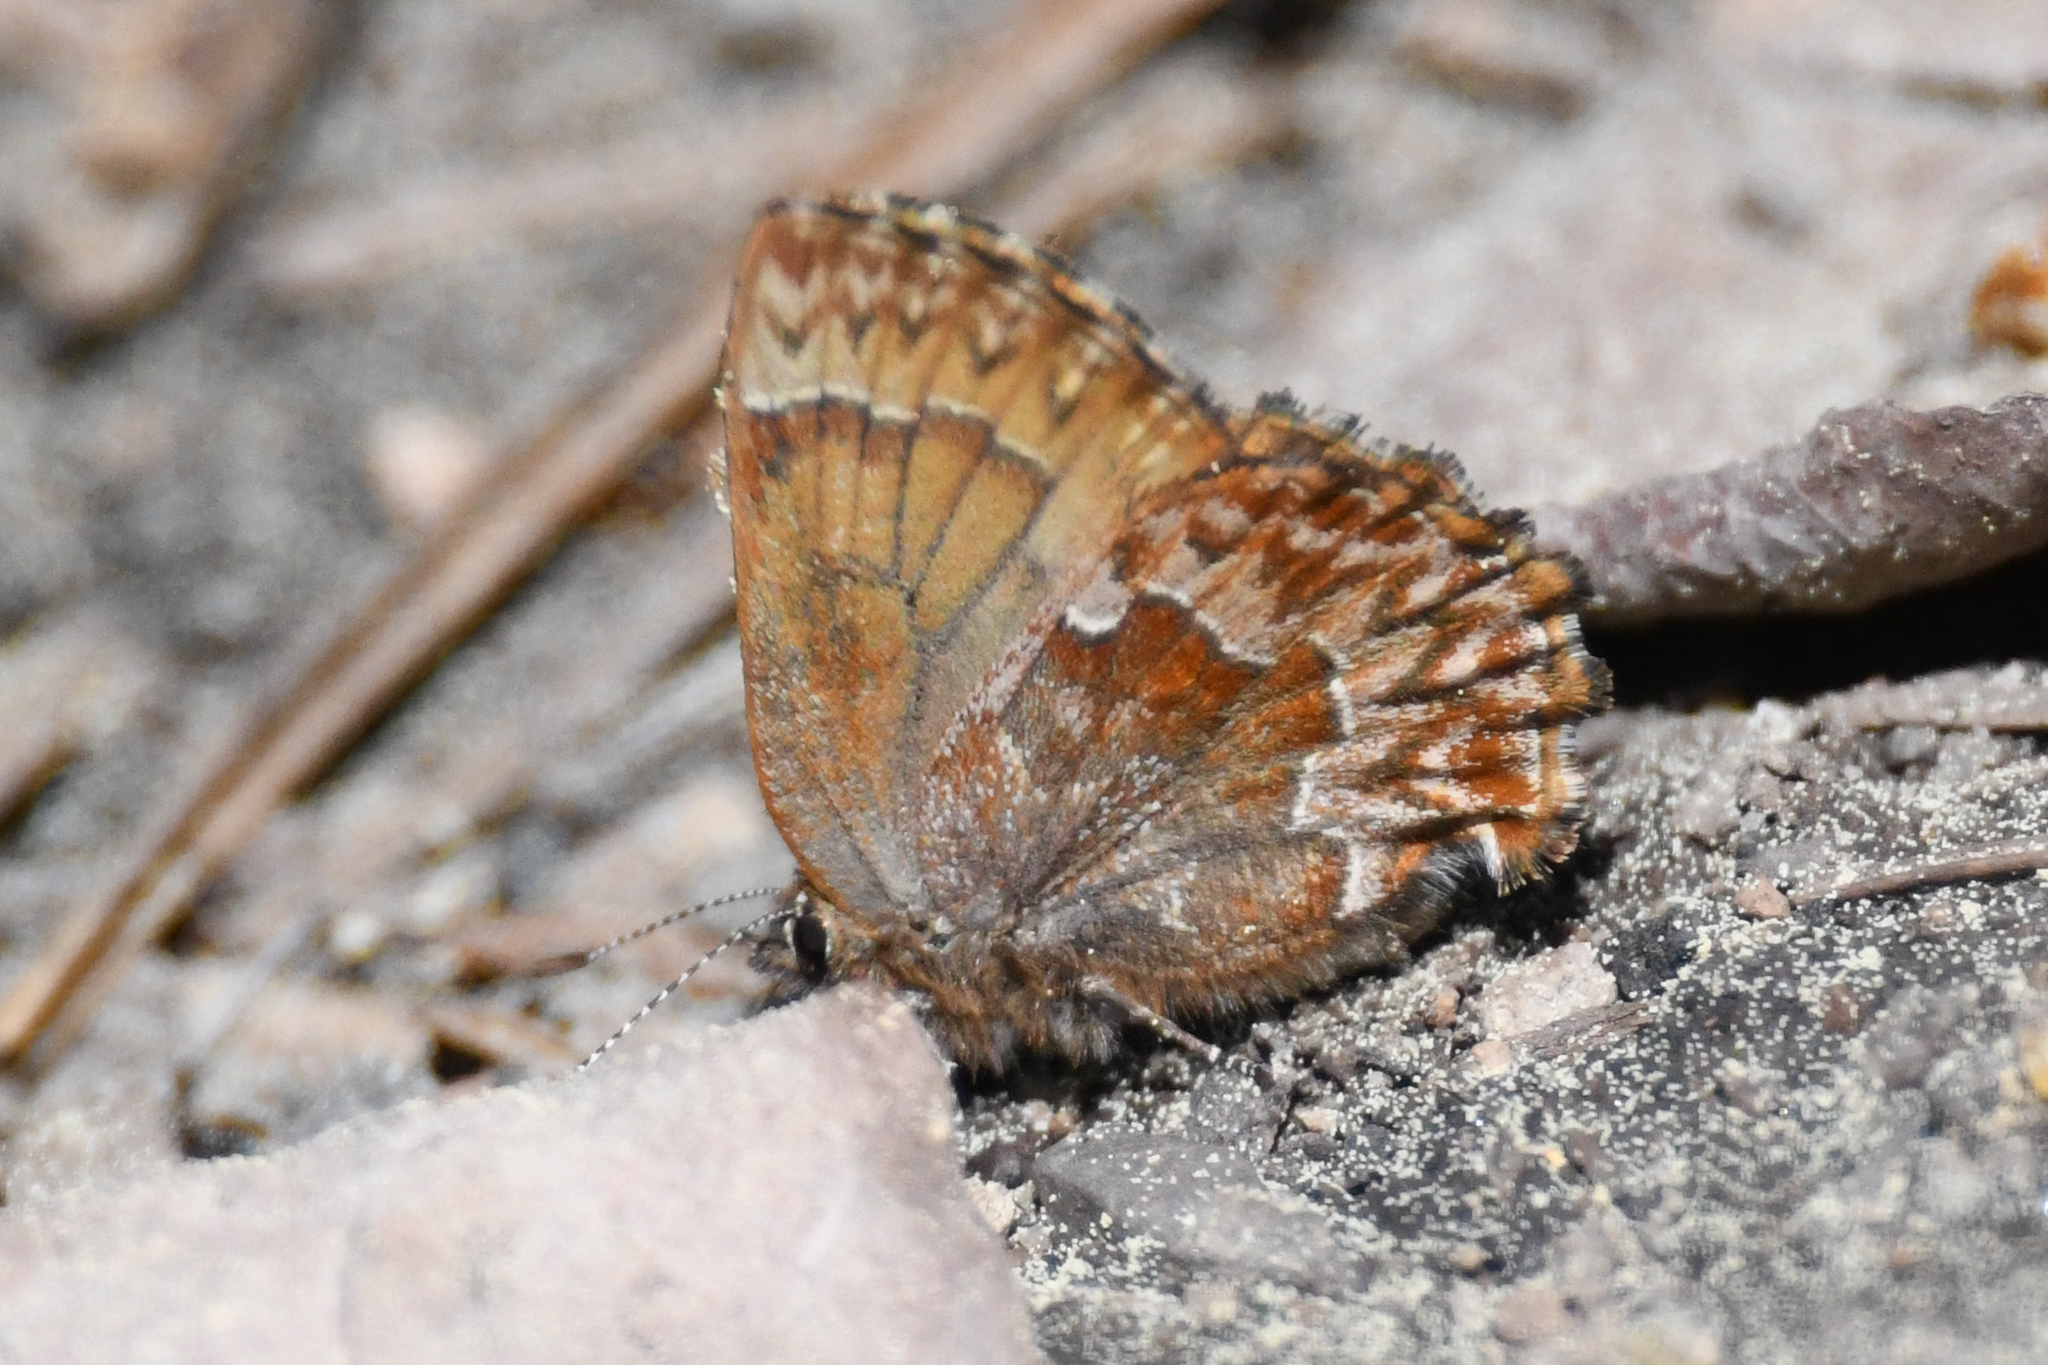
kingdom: Animalia
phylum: Arthropoda
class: Insecta
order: Lepidoptera
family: Lycaenidae
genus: Incisalia
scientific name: Incisalia eryphon
